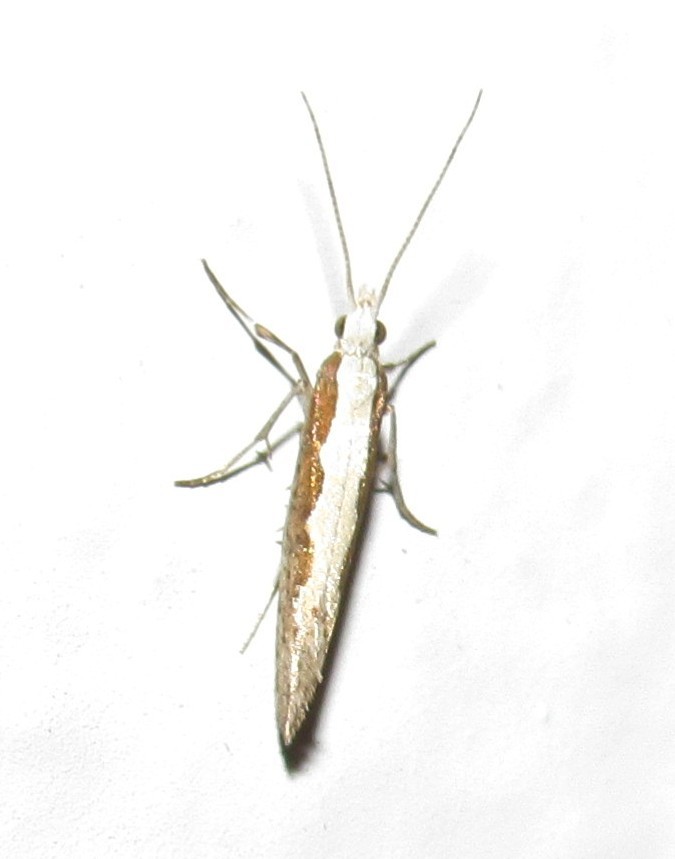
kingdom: Animalia
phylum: Arthropoda
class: Insecta
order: Lepidoptera
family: Plutellidae
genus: Plutella
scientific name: Plutella xylostella
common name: Diamond-back moth
